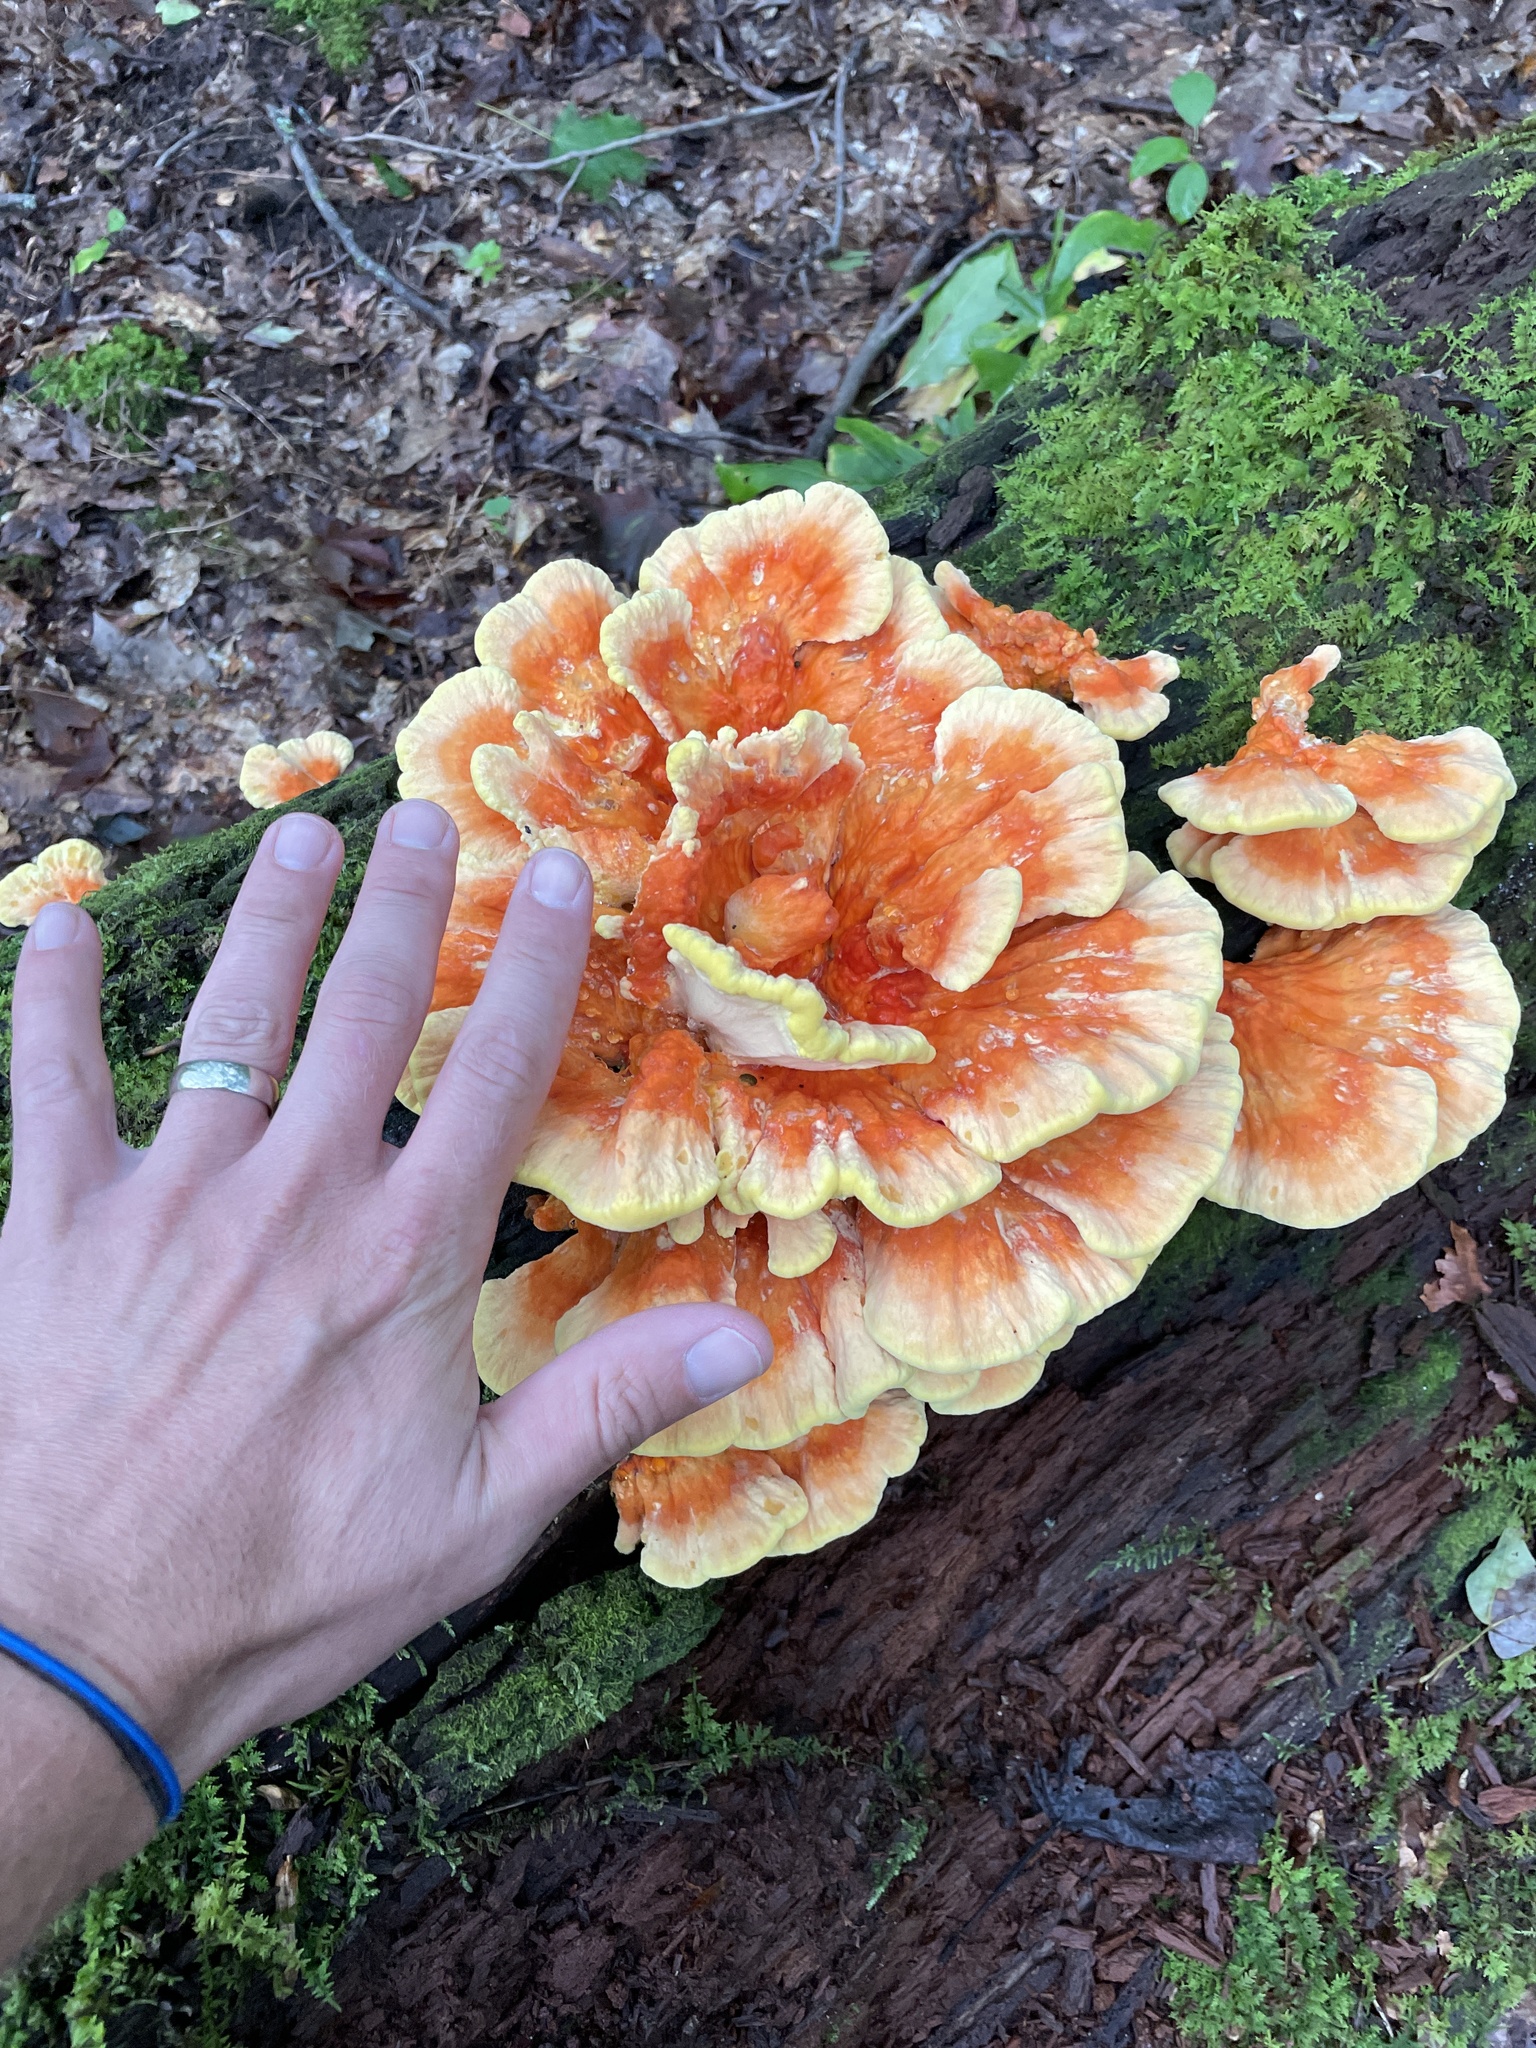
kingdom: Fungi
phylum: Basidiomycota
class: Agaricomycetes
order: Polyporales
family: Laetiporaceae
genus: Laetiporus
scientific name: Laetiporus sulphureus
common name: Chicken of the woods
